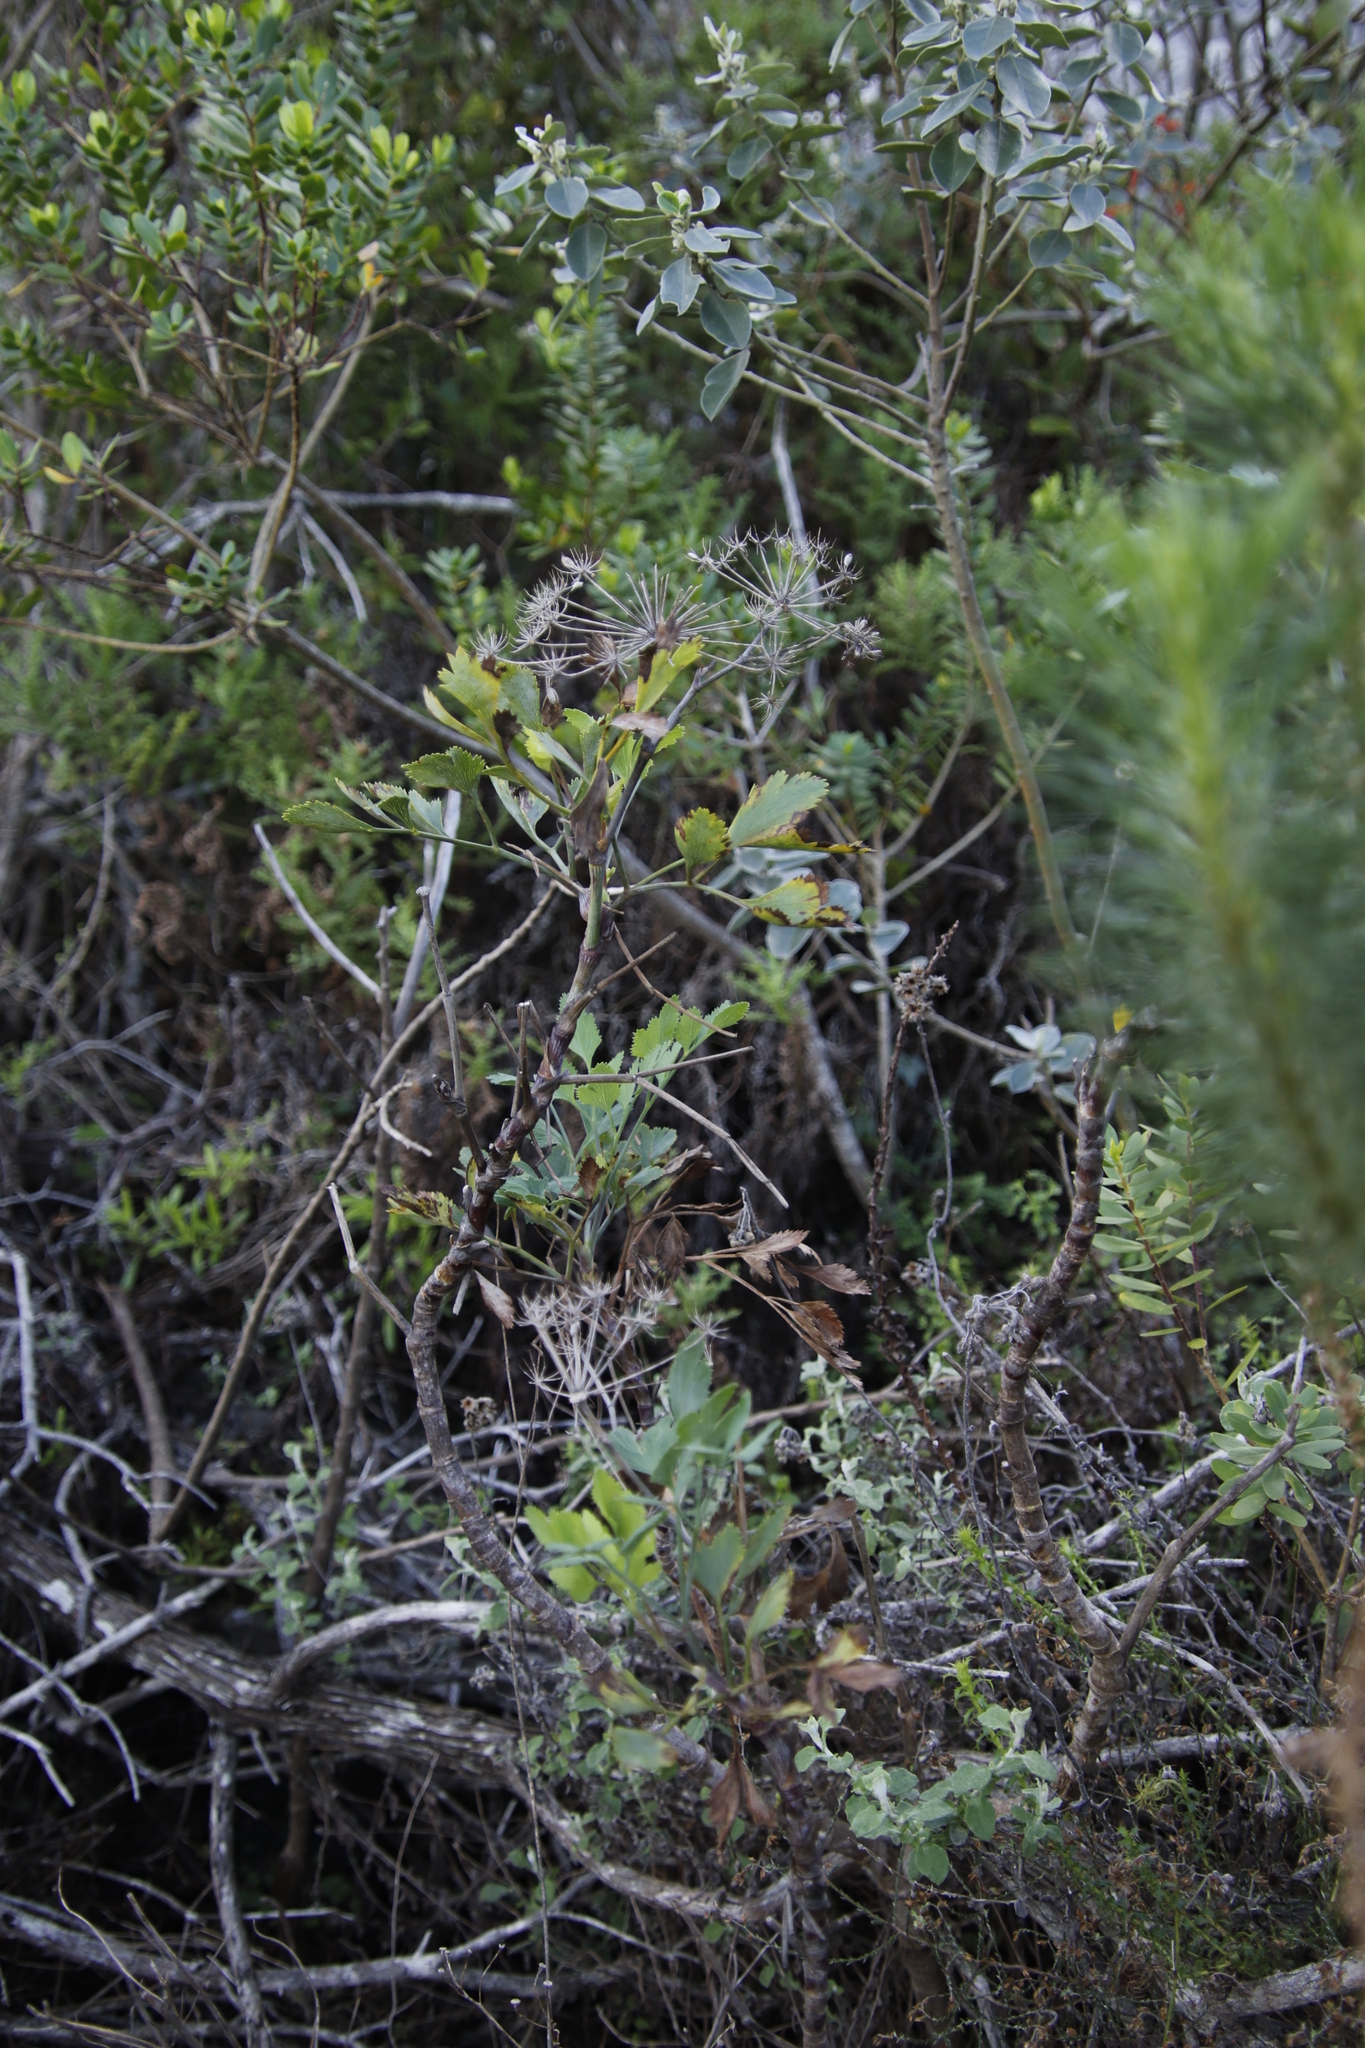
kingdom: Plantae
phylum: Tracheophyta
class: Magnoliopsida
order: Apiales
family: Apiaceae
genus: Notobubon
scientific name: Notobubon galbanum
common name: Blisterbush
